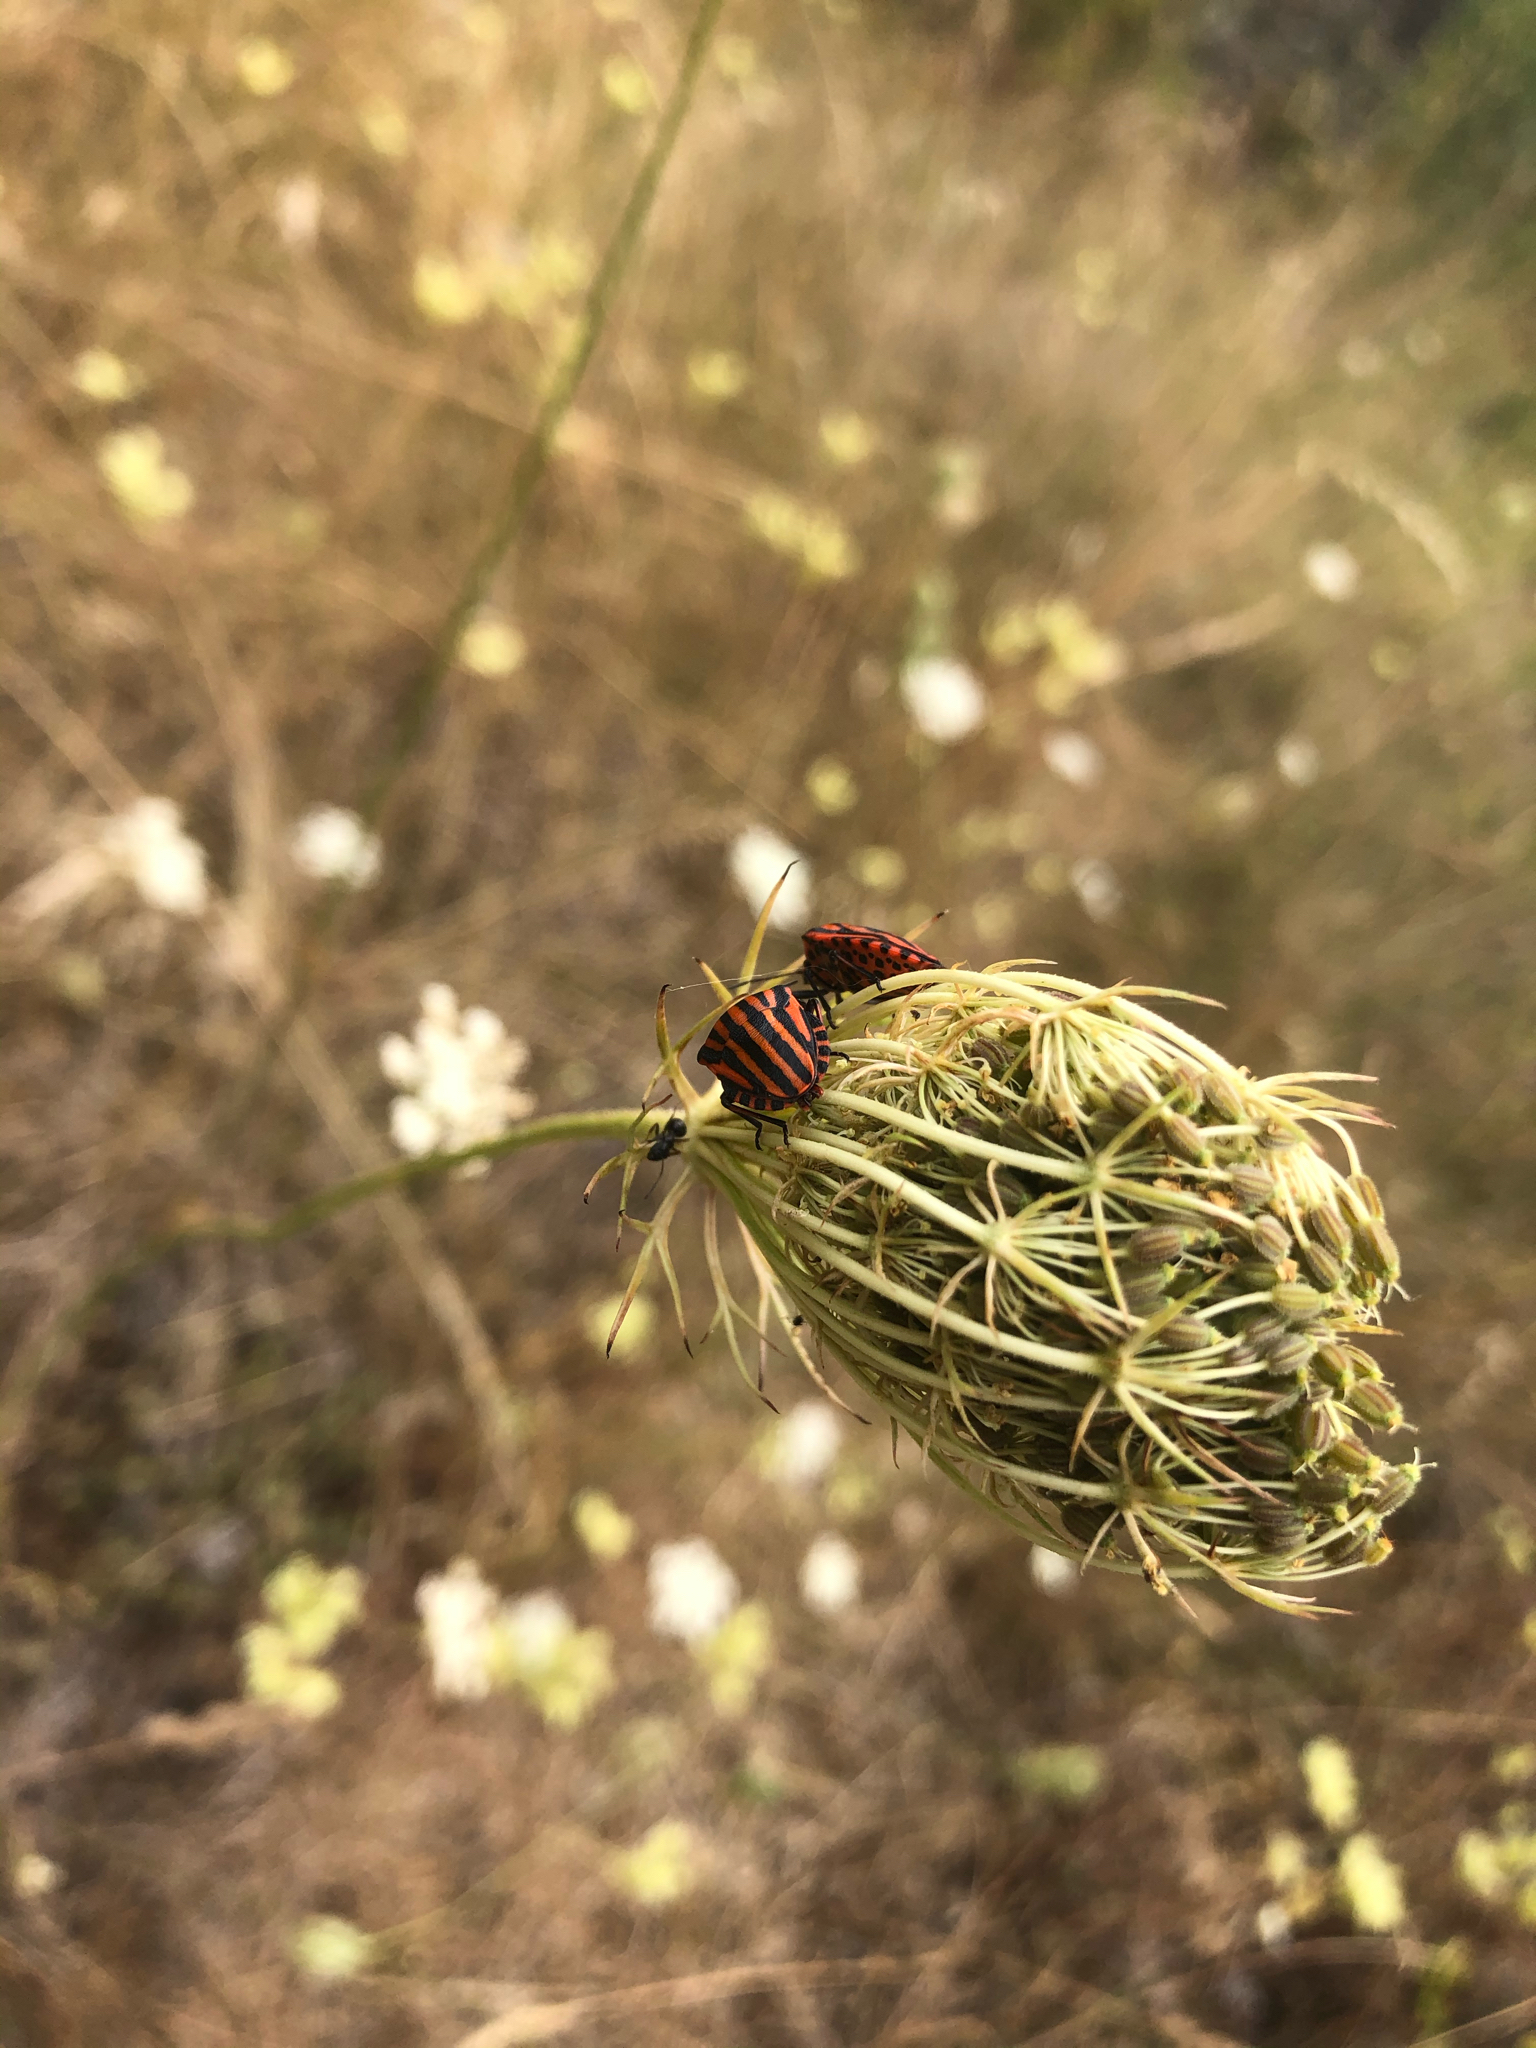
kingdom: Animalia
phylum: Arthropoda
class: Insecta
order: Hemiptera
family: Pentatomidae
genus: Graphosoma
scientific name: Graphosoma italicum
